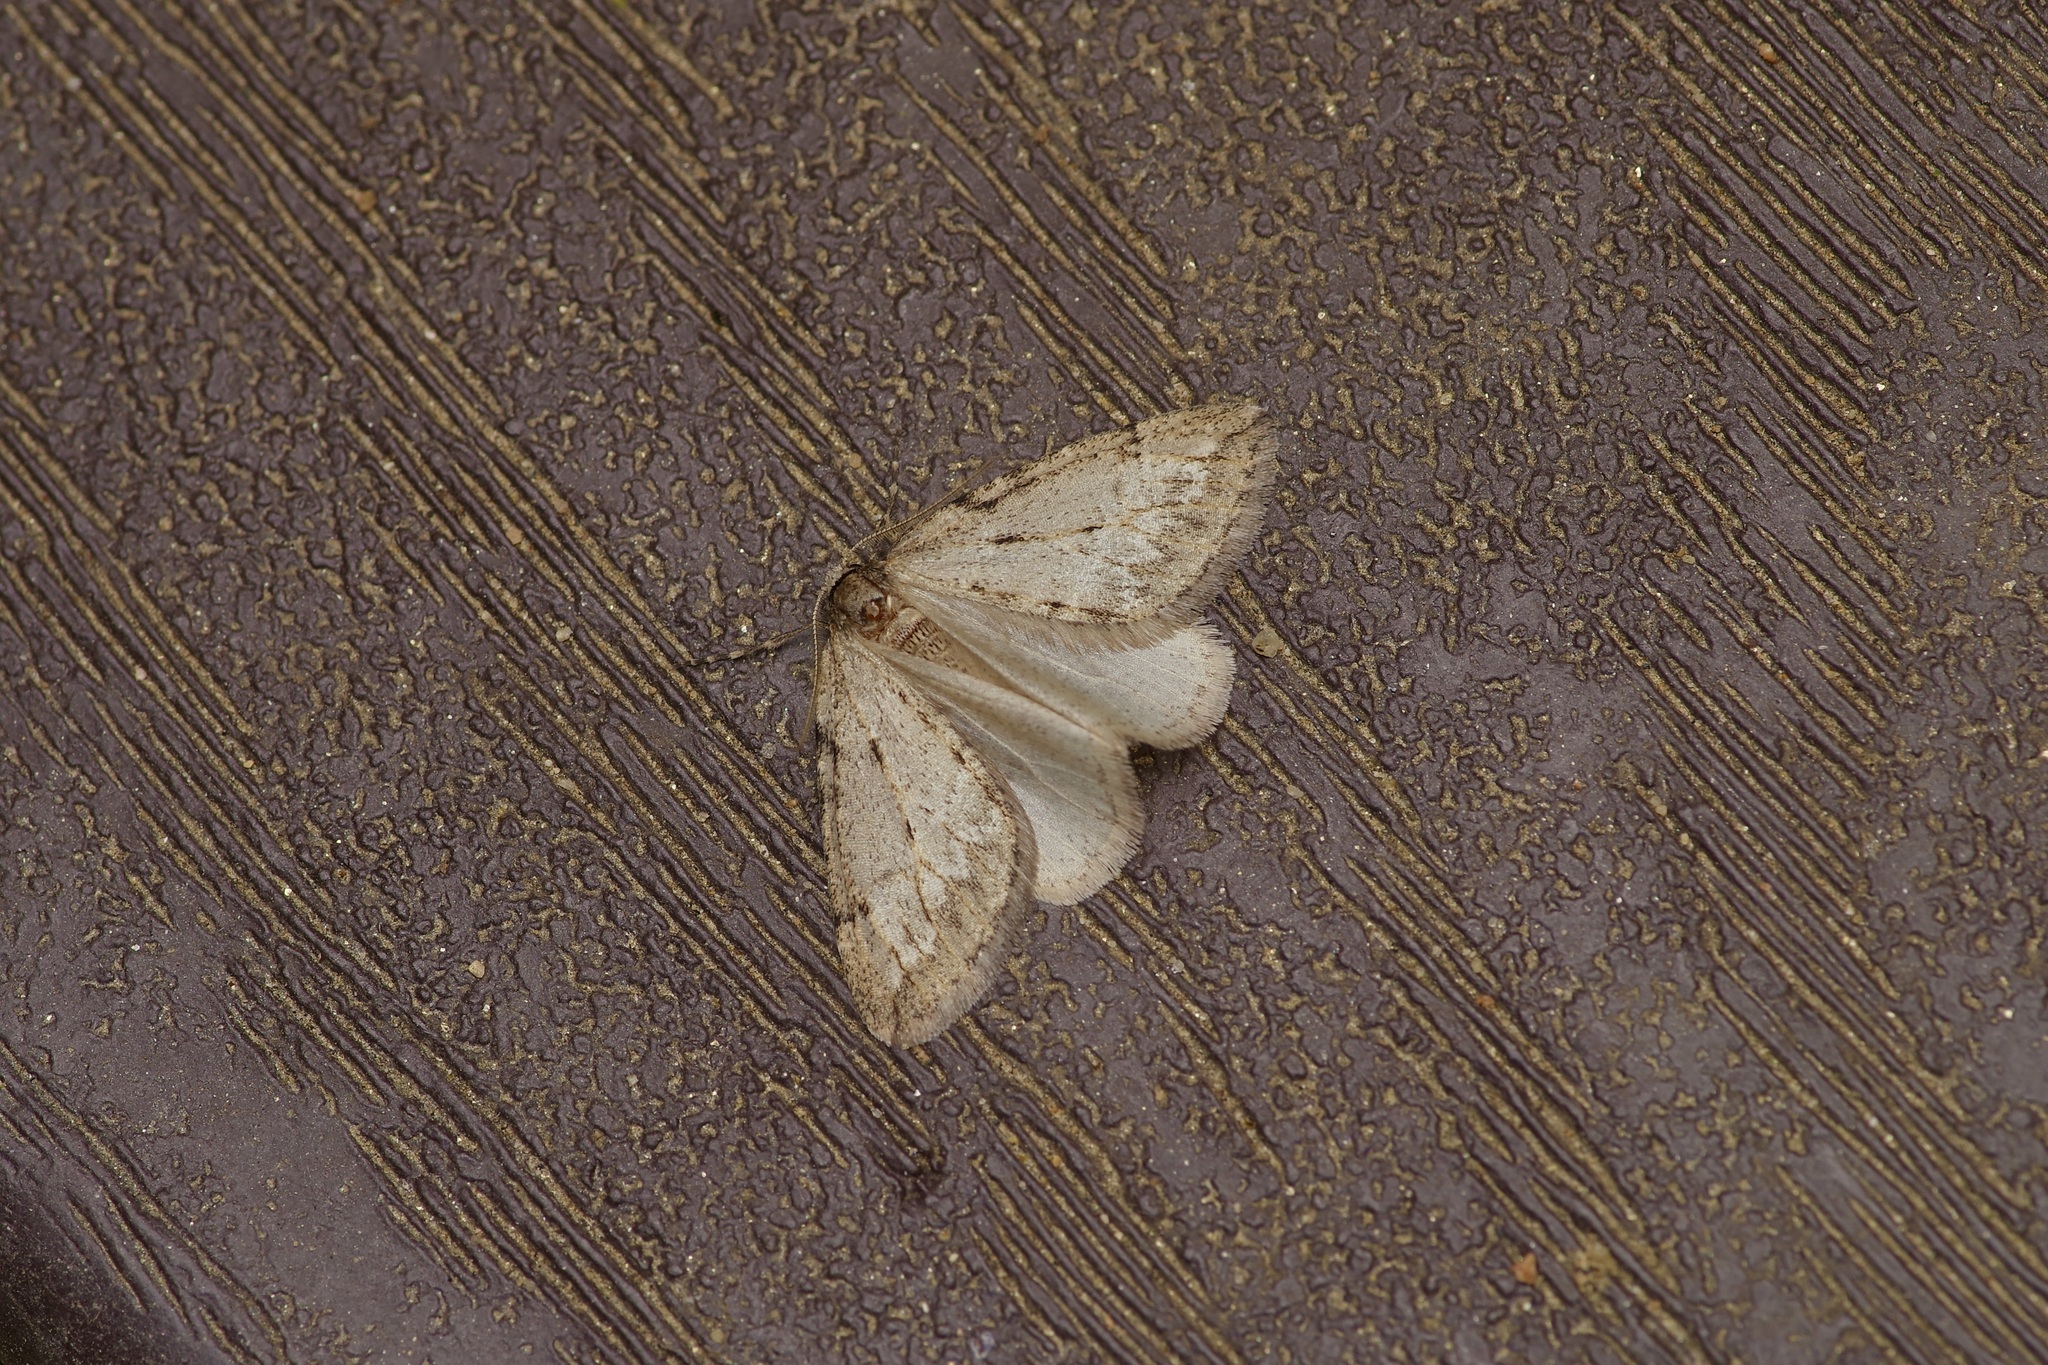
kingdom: Animalia
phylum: Arthropoda
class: Insecta
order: Lepidoptera
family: Geometridae
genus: Paleacrita
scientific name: Paleacrita vernata
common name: Spring cankerworm
